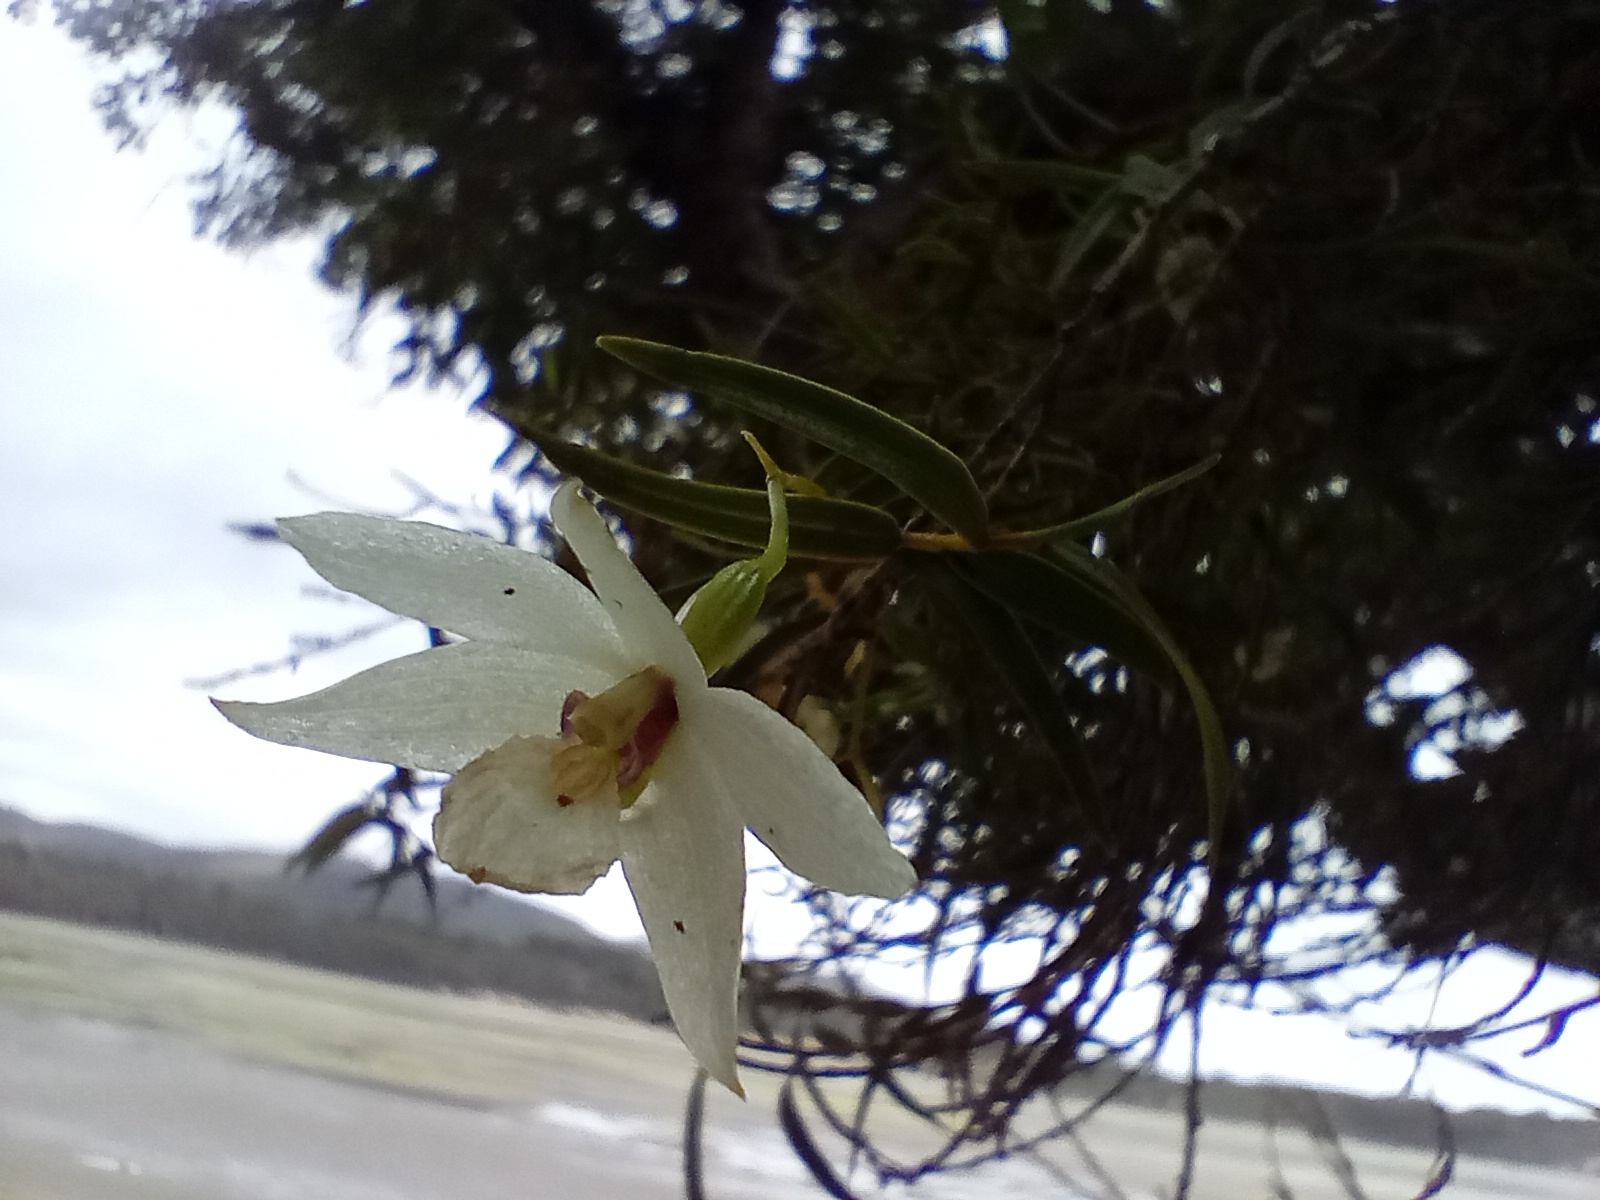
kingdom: Plantae
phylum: Tracheophyta
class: Liliopsida
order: Asparagales
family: Orchidaceae
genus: Dendrobium
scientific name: Dendrobium cunninghamii
